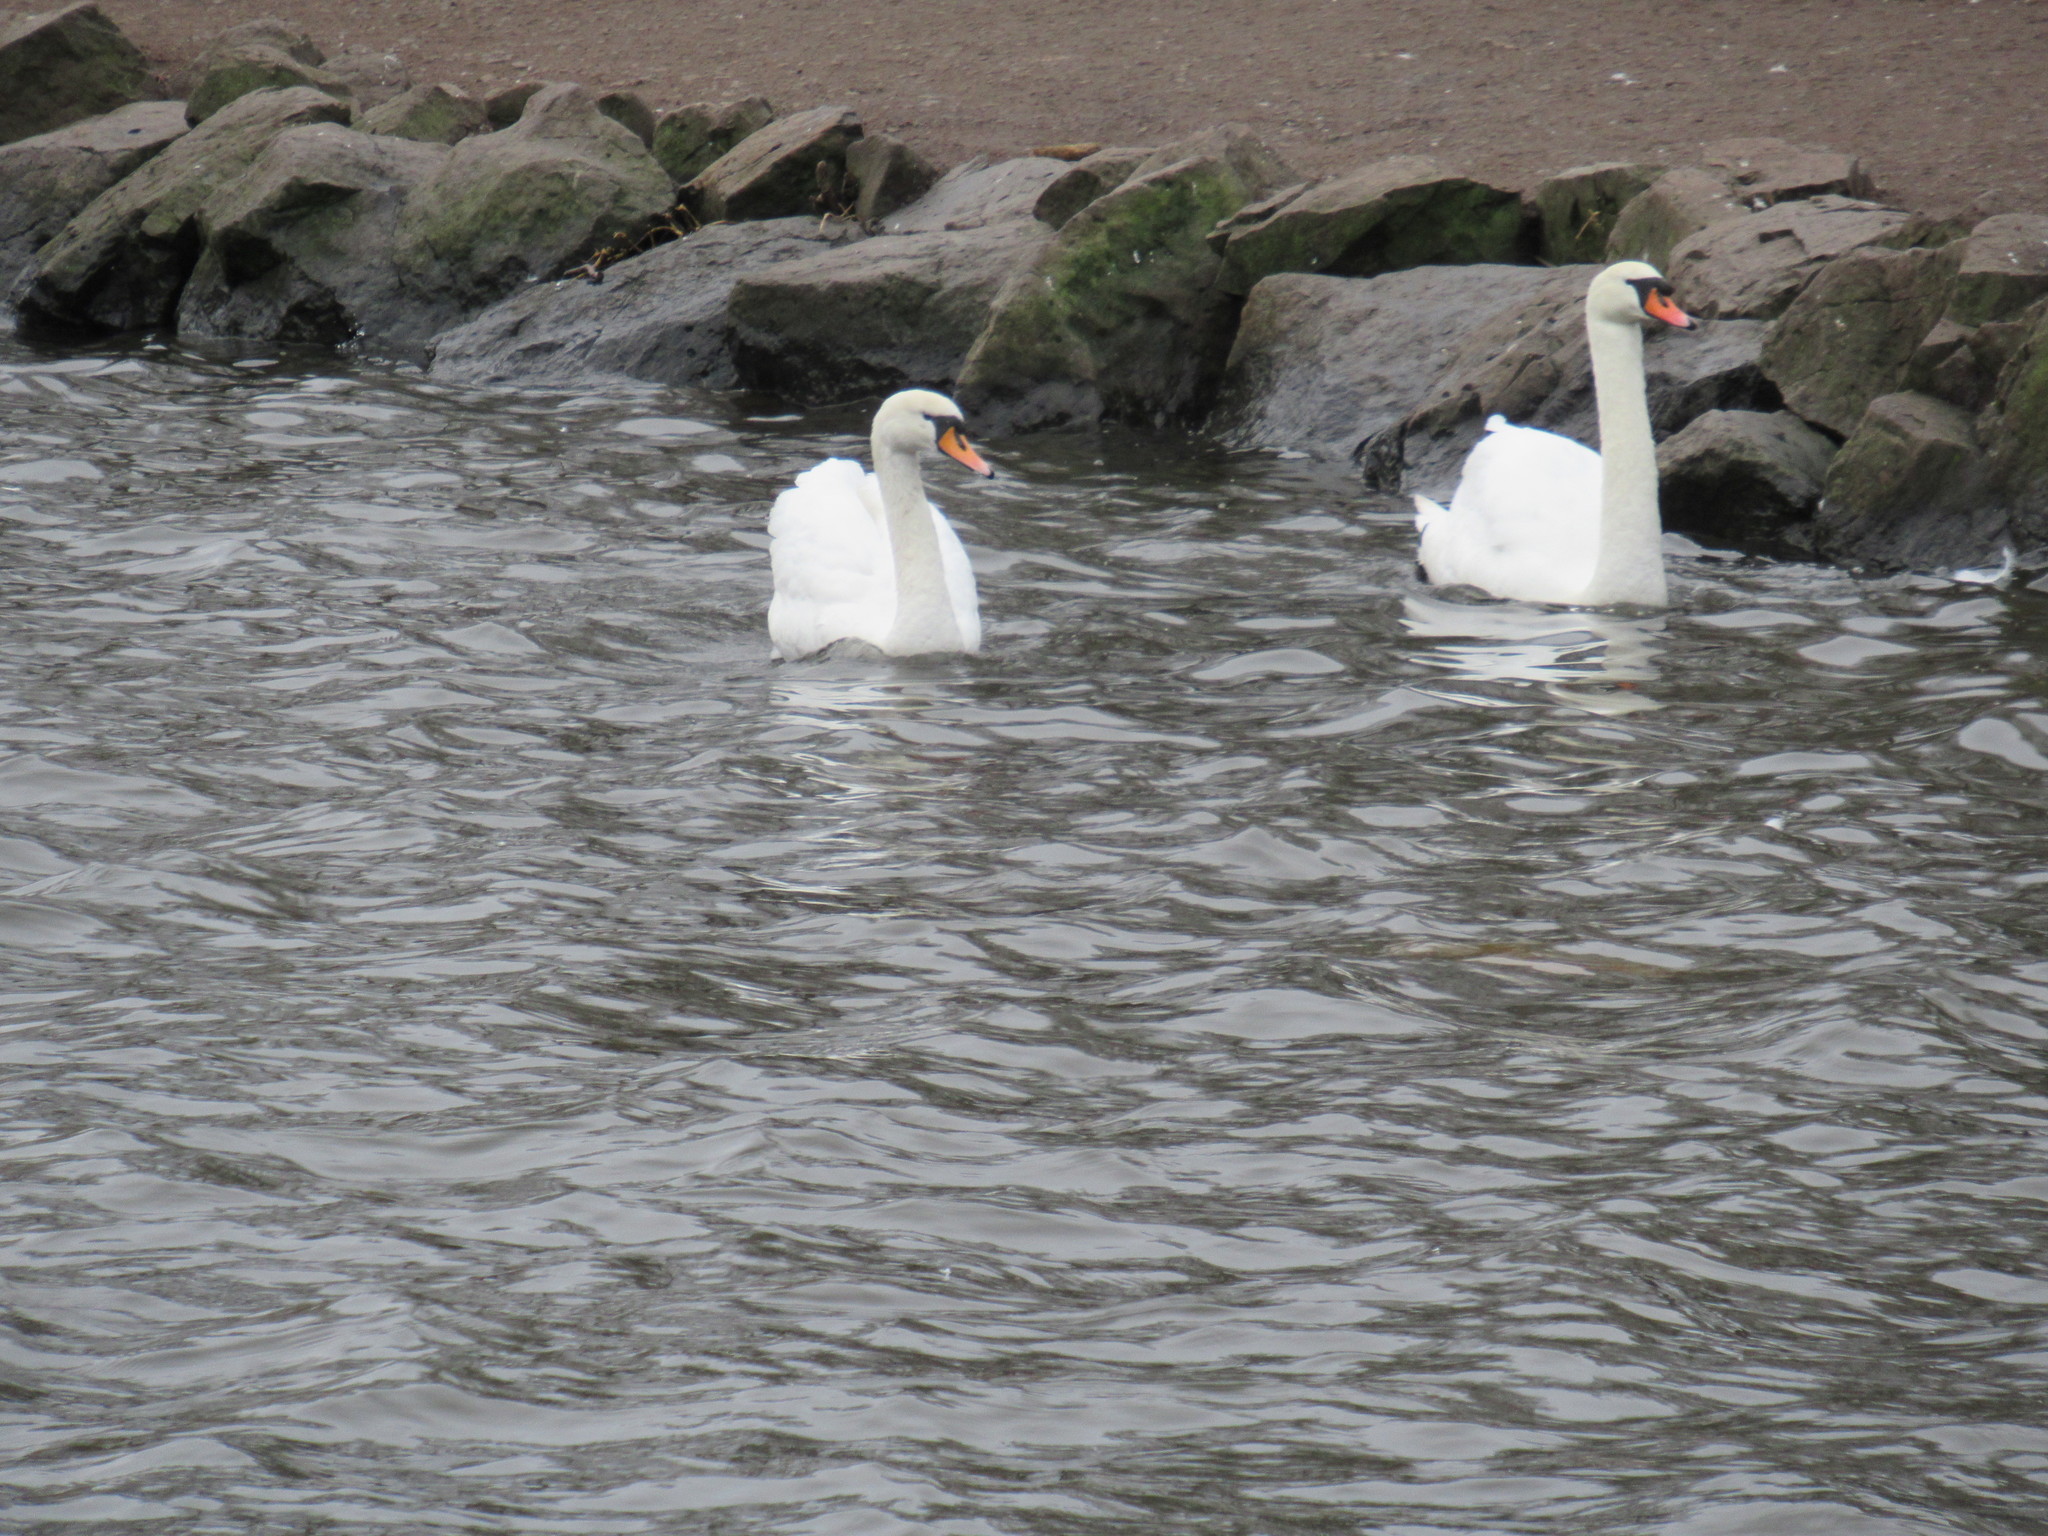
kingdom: Animalia
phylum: Chordata
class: Aves
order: Anseriformes
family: Anatidae
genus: Cygnus
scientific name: Cygnus olor
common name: Mute swan
